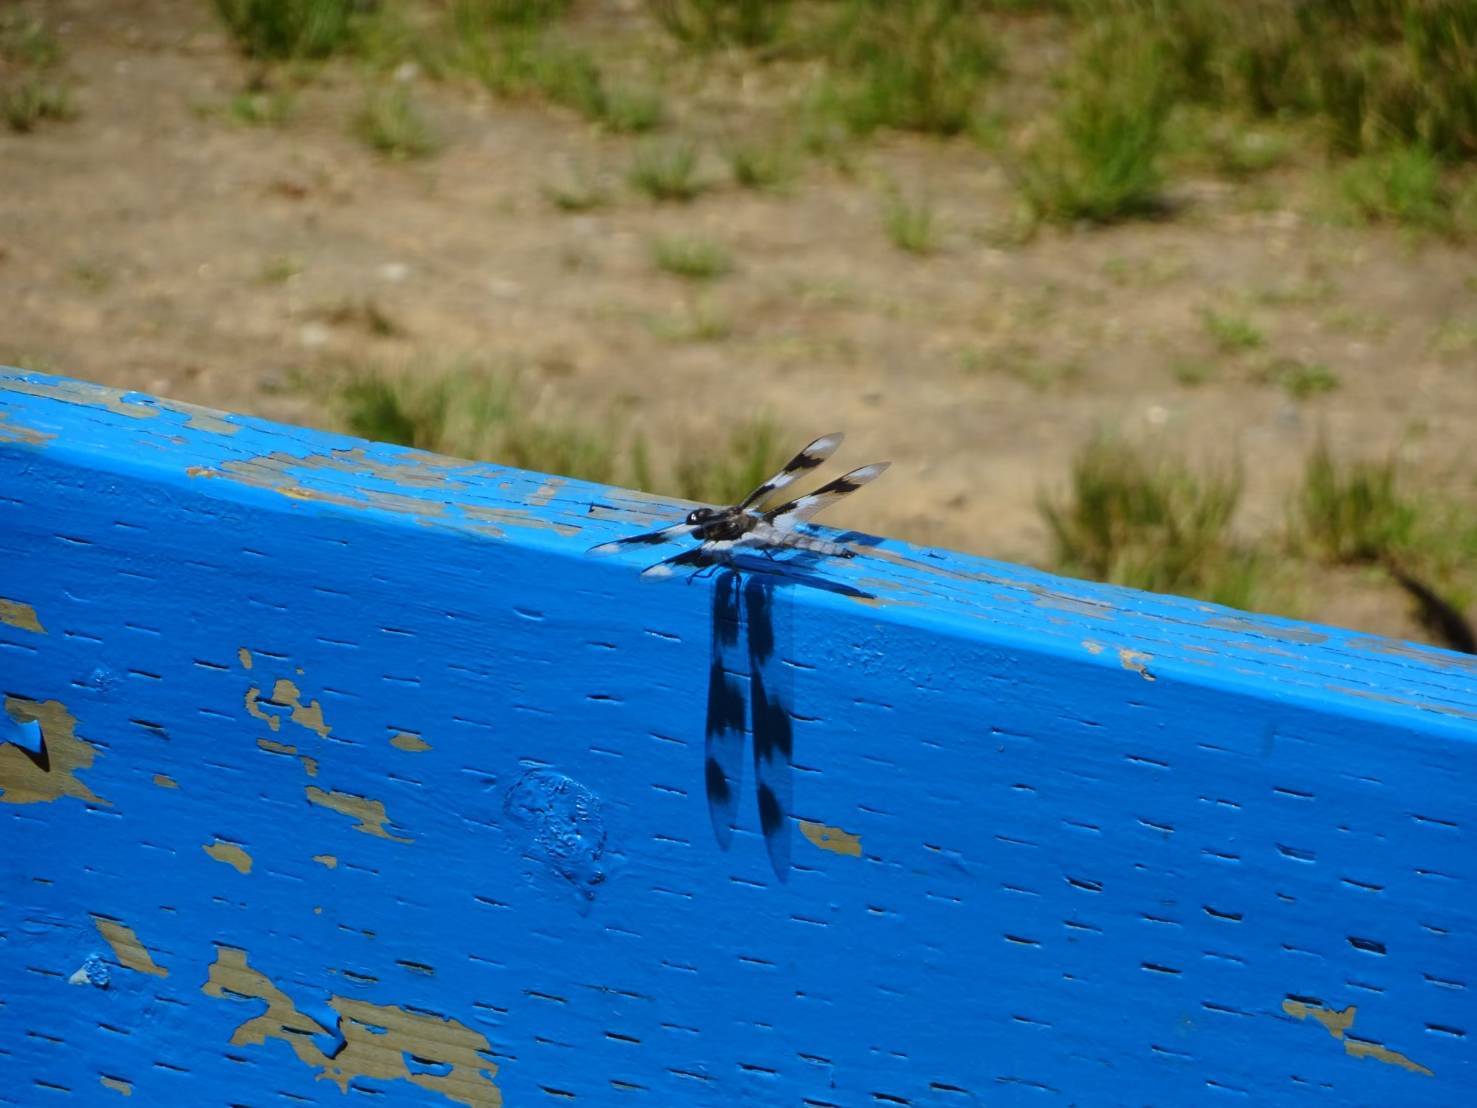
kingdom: Animalia
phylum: Arthropoda
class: Insecta
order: Odonata
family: Libellulidae
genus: Libellula
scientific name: Libellula forensis
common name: Eight-spotted skimmer
